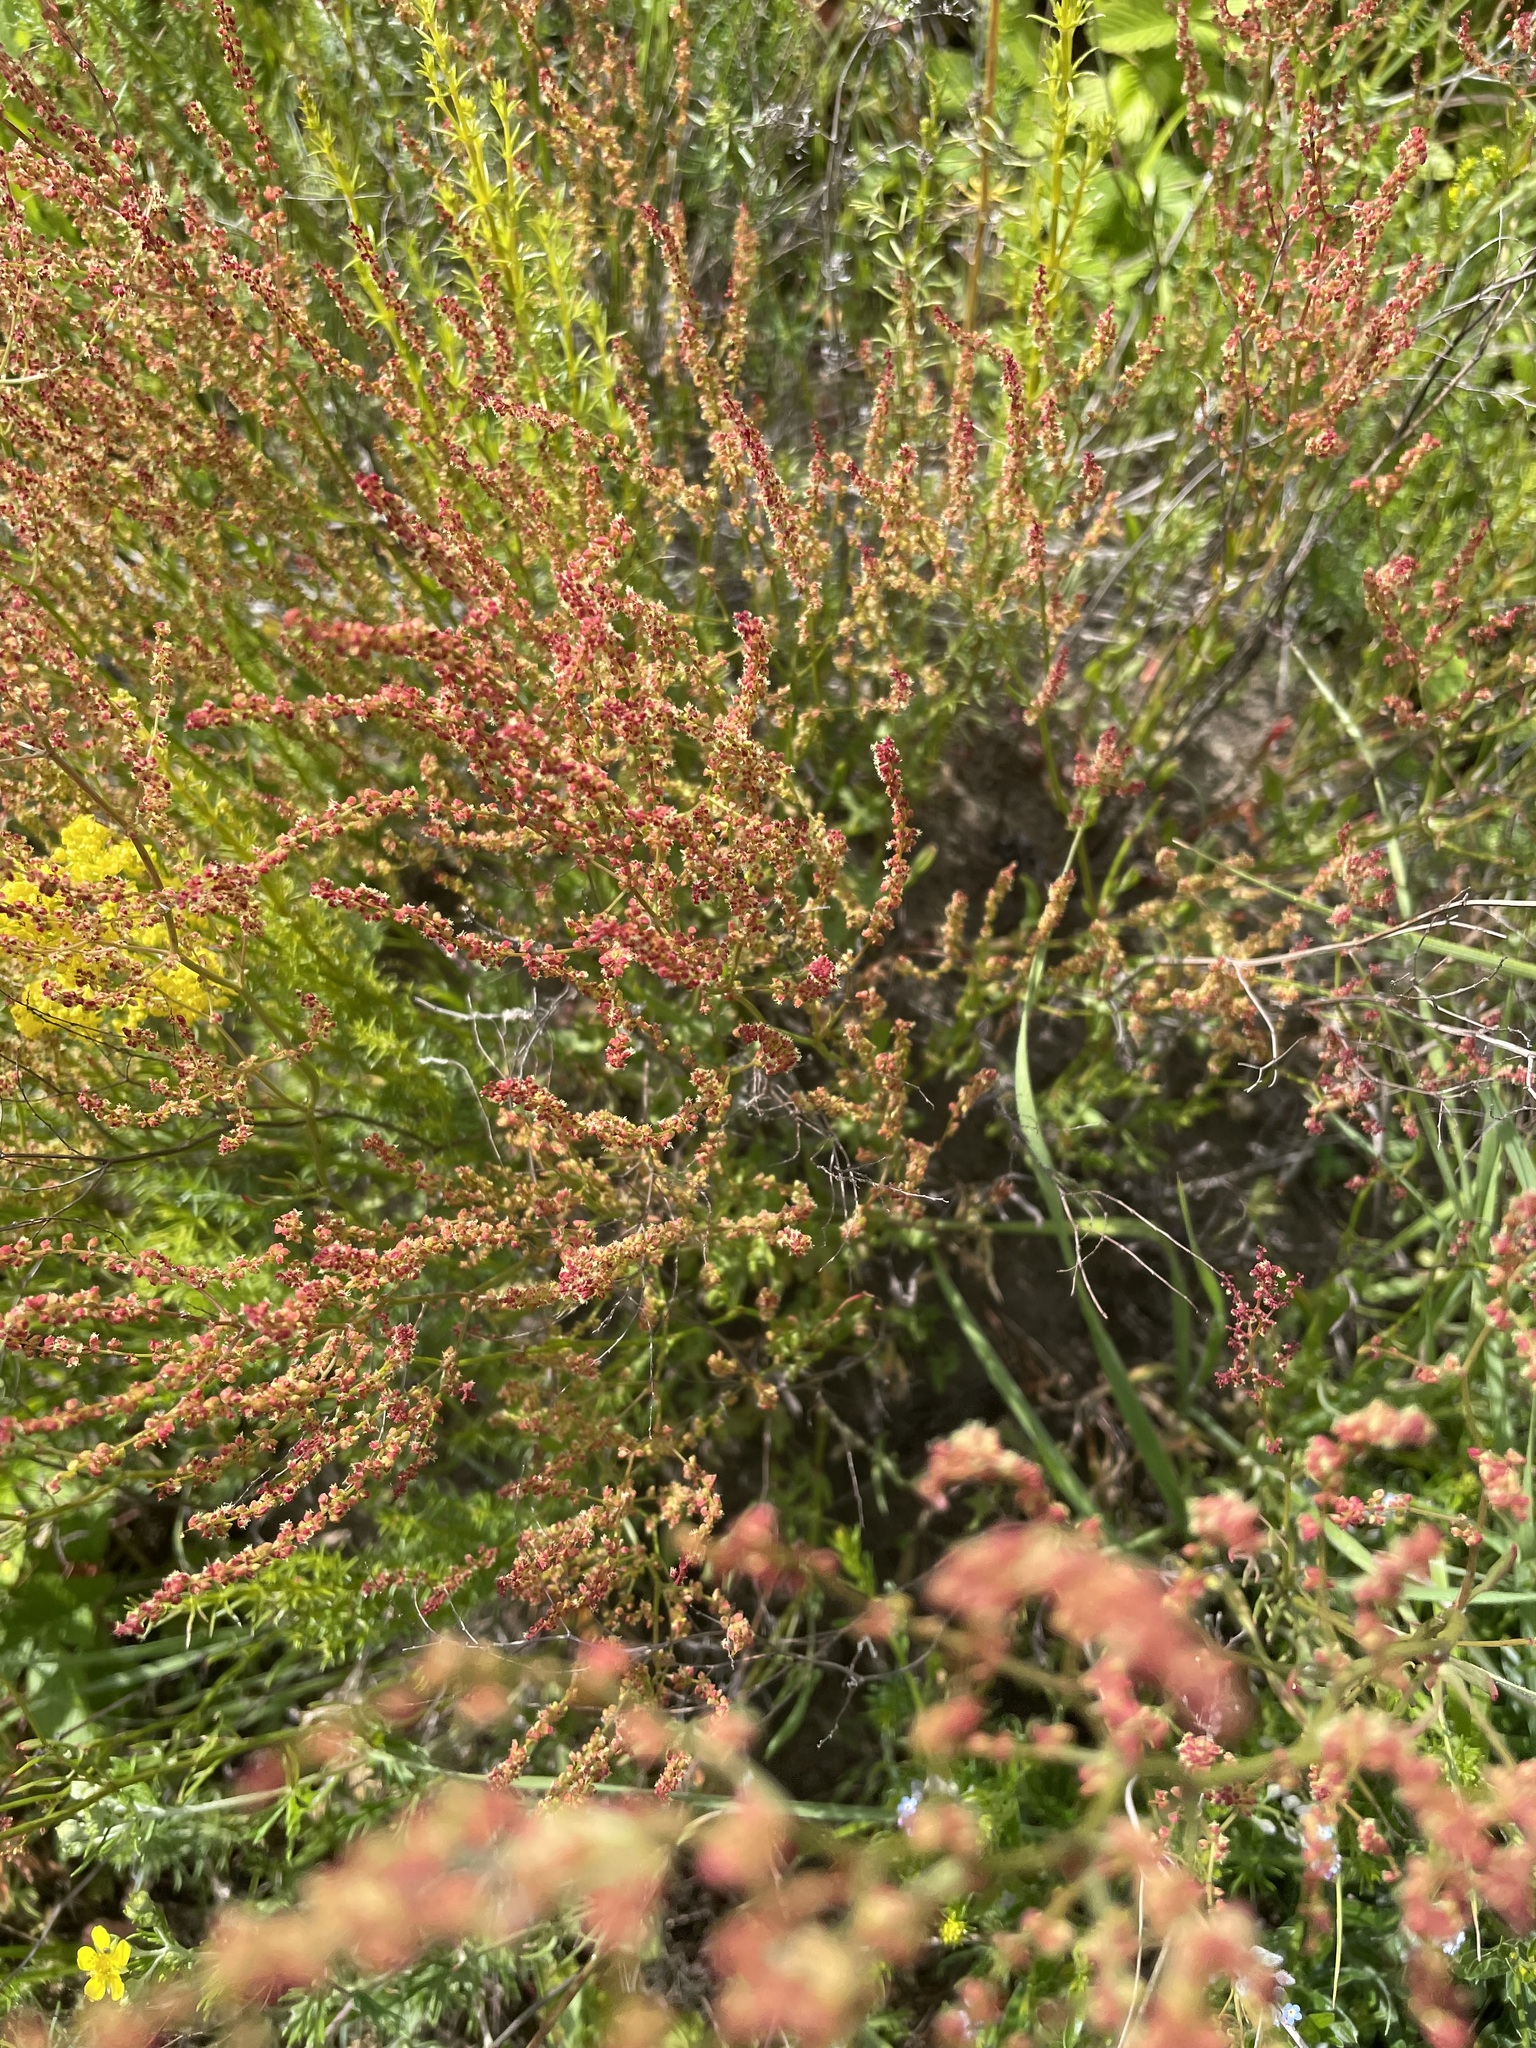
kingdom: Plantae
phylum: Tracheophyta
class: Magnoliopsida
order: Caryophyllales
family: Polygonaceae
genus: Rumex
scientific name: Rumex acetosella
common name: Common sheep sorrel
